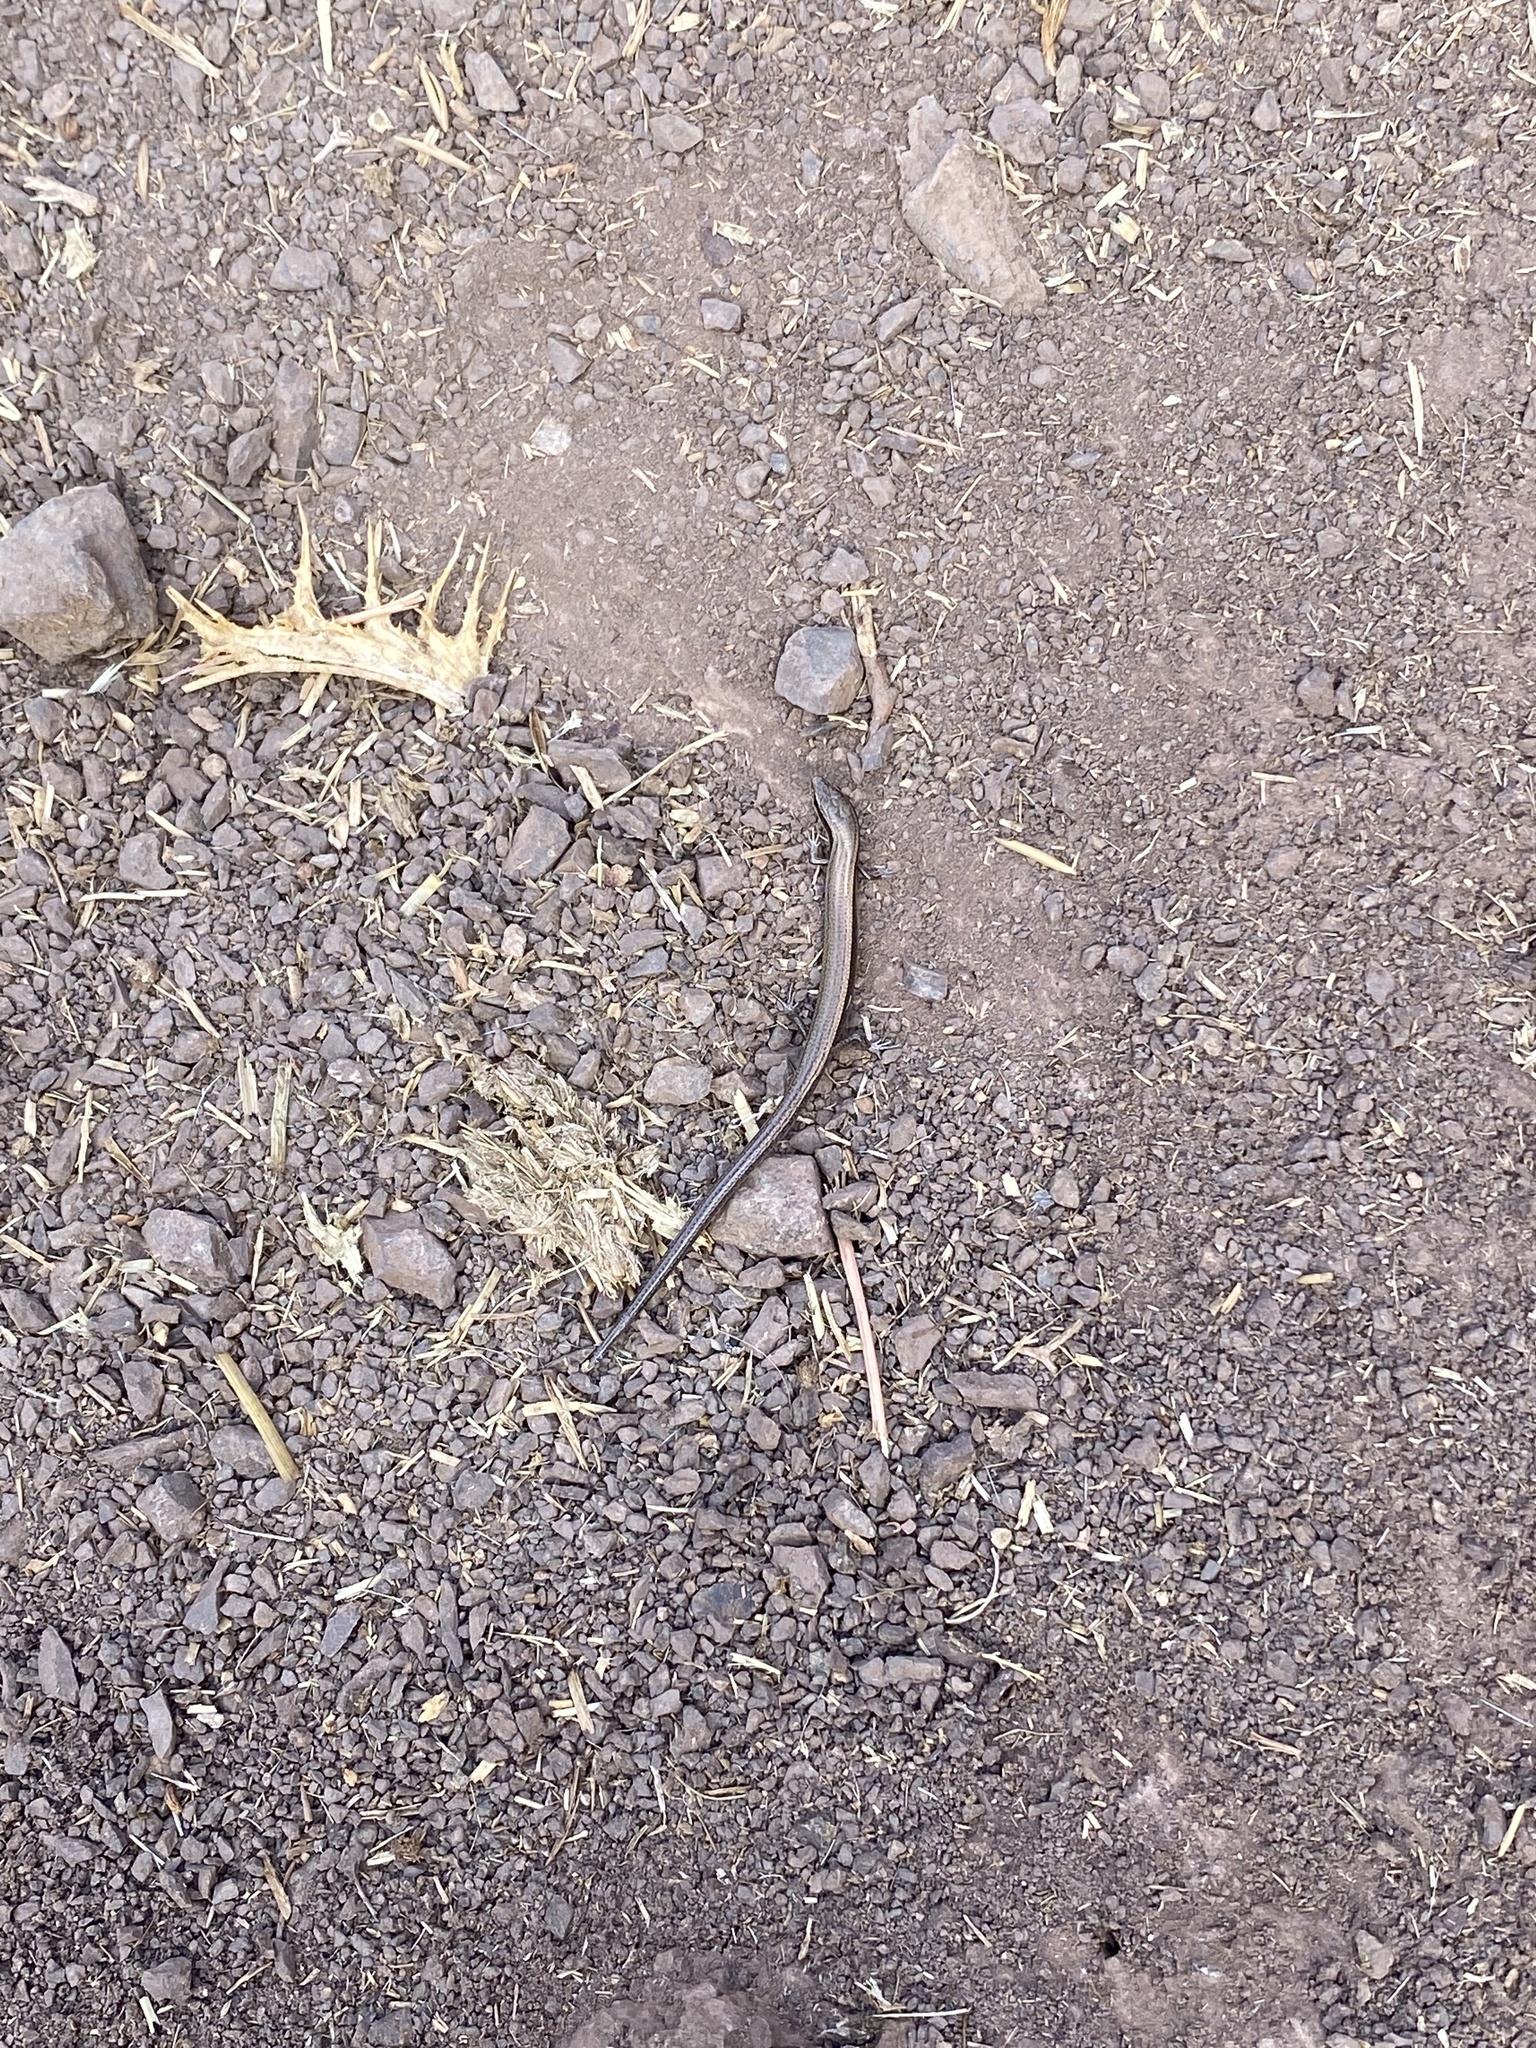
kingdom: Animalia
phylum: Chordata
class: Squamata
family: Scincidae
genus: Ablepharus
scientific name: Ablepharus kitaibelii
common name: Juniper skink
